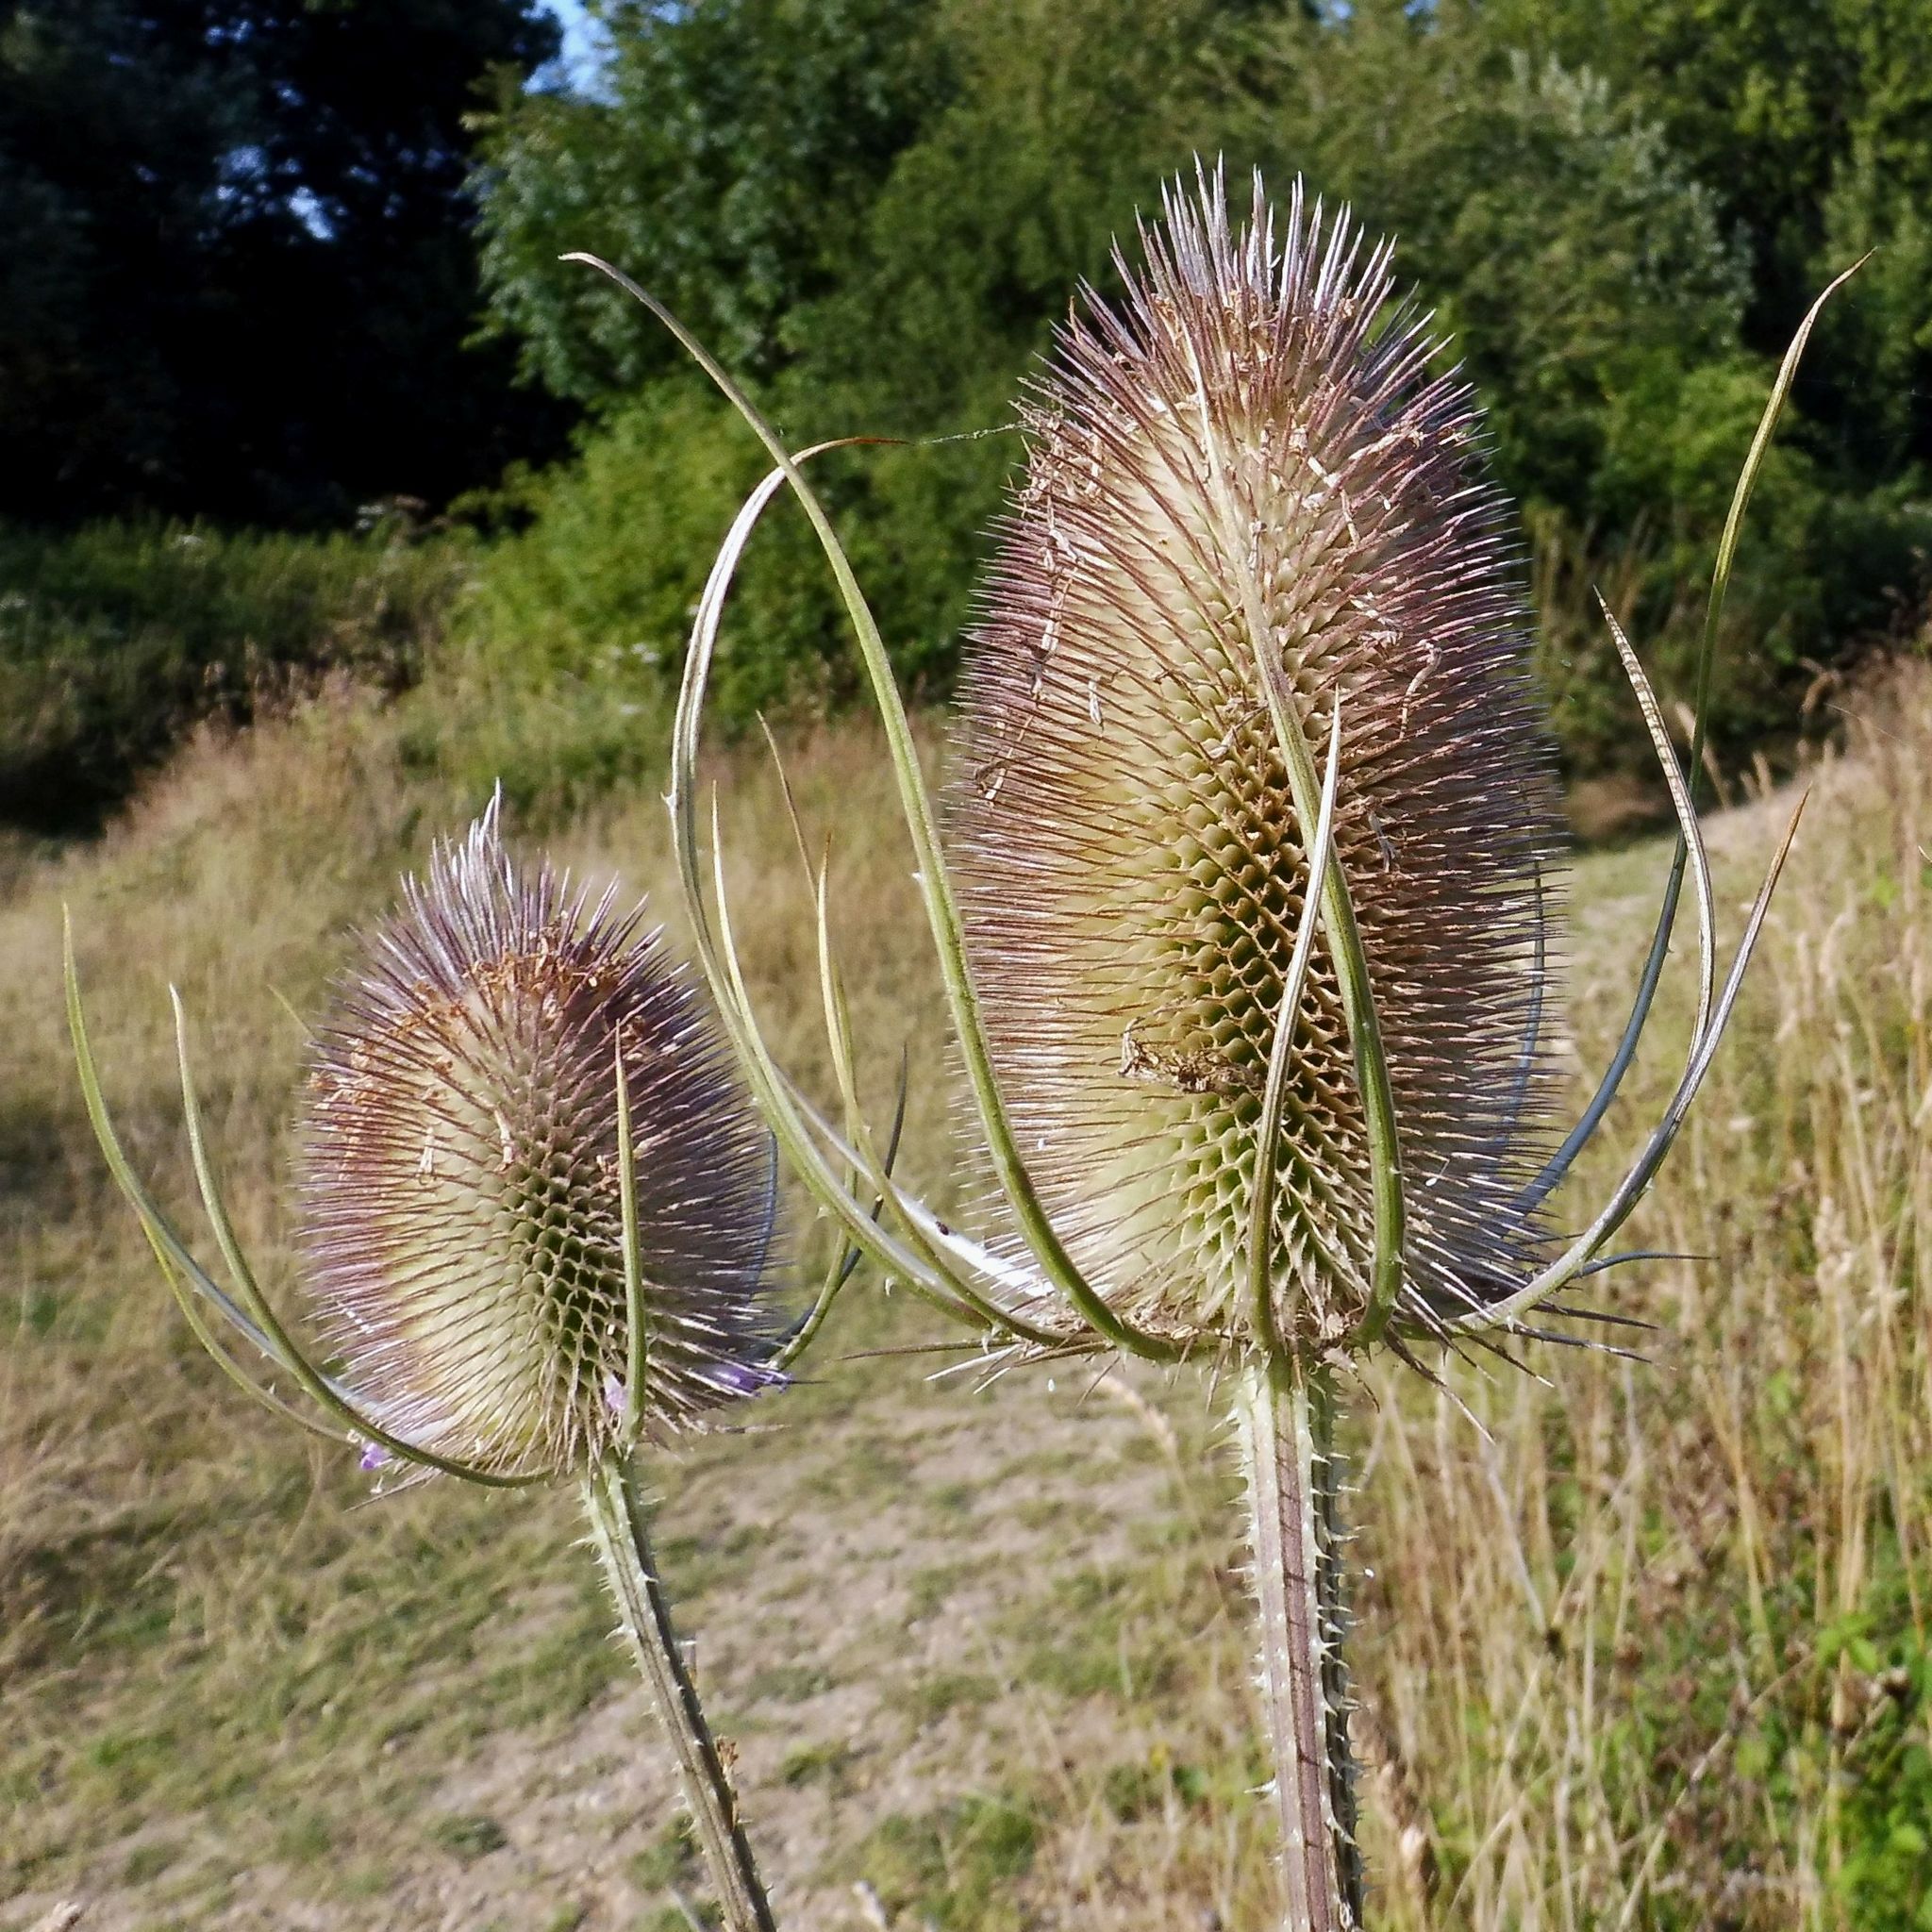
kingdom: Plantae
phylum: Tracheophyta
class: Magnoliopsida
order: Dipsacales
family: Caprifoliaceae
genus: Dipsacus
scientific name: Dipsacus fullonum
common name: Teasel
